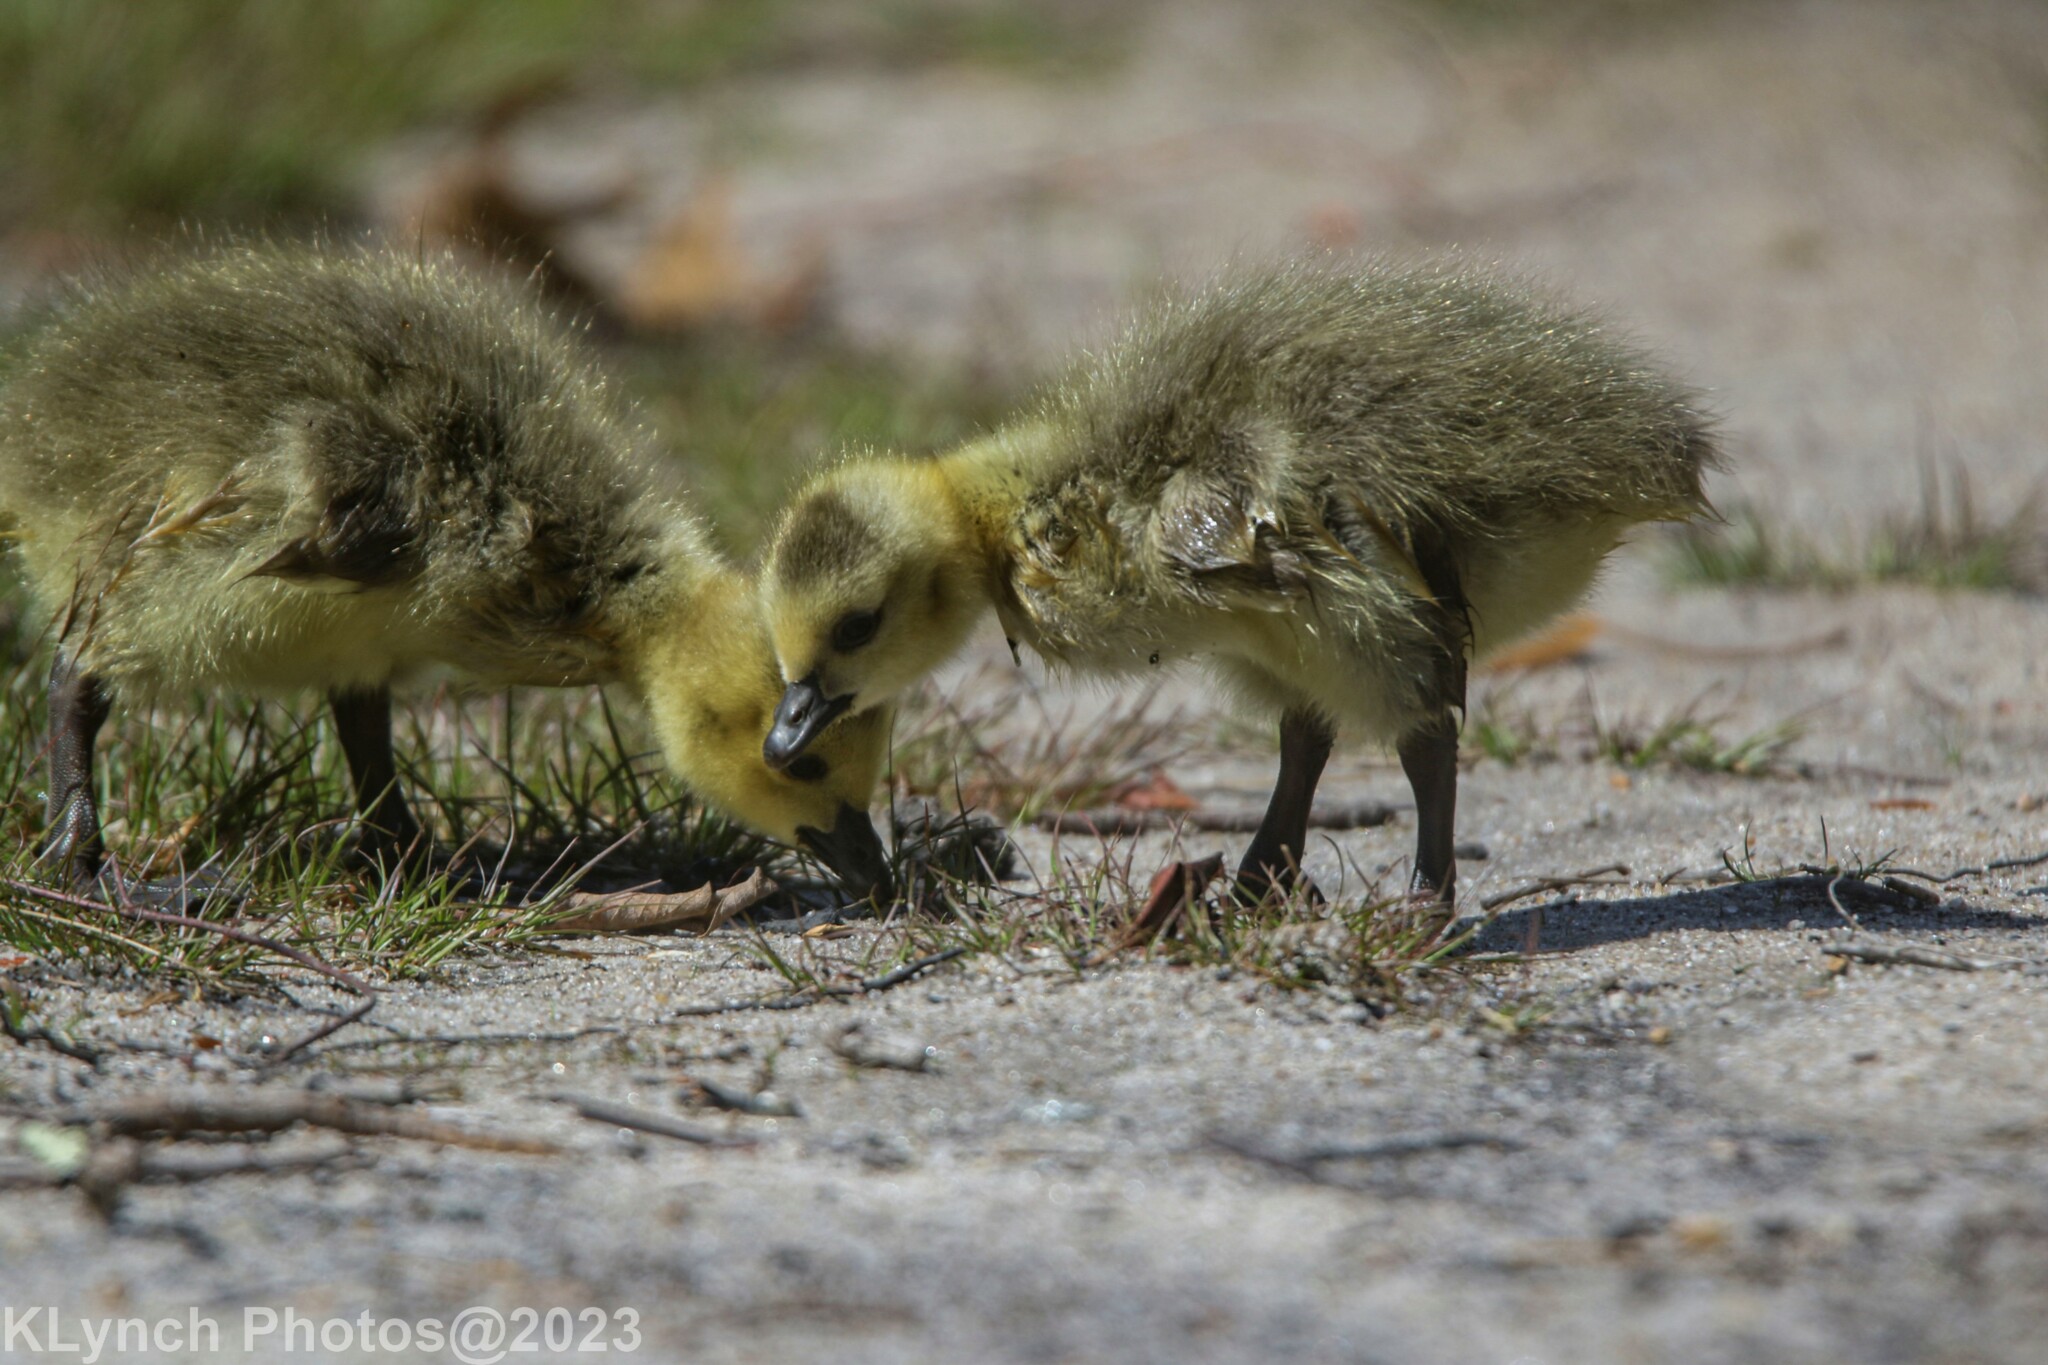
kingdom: Animalia
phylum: Chordata
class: Aves
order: Anseriformes
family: Anatidae
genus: Branta
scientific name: Branta canadensis
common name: Canada goose
